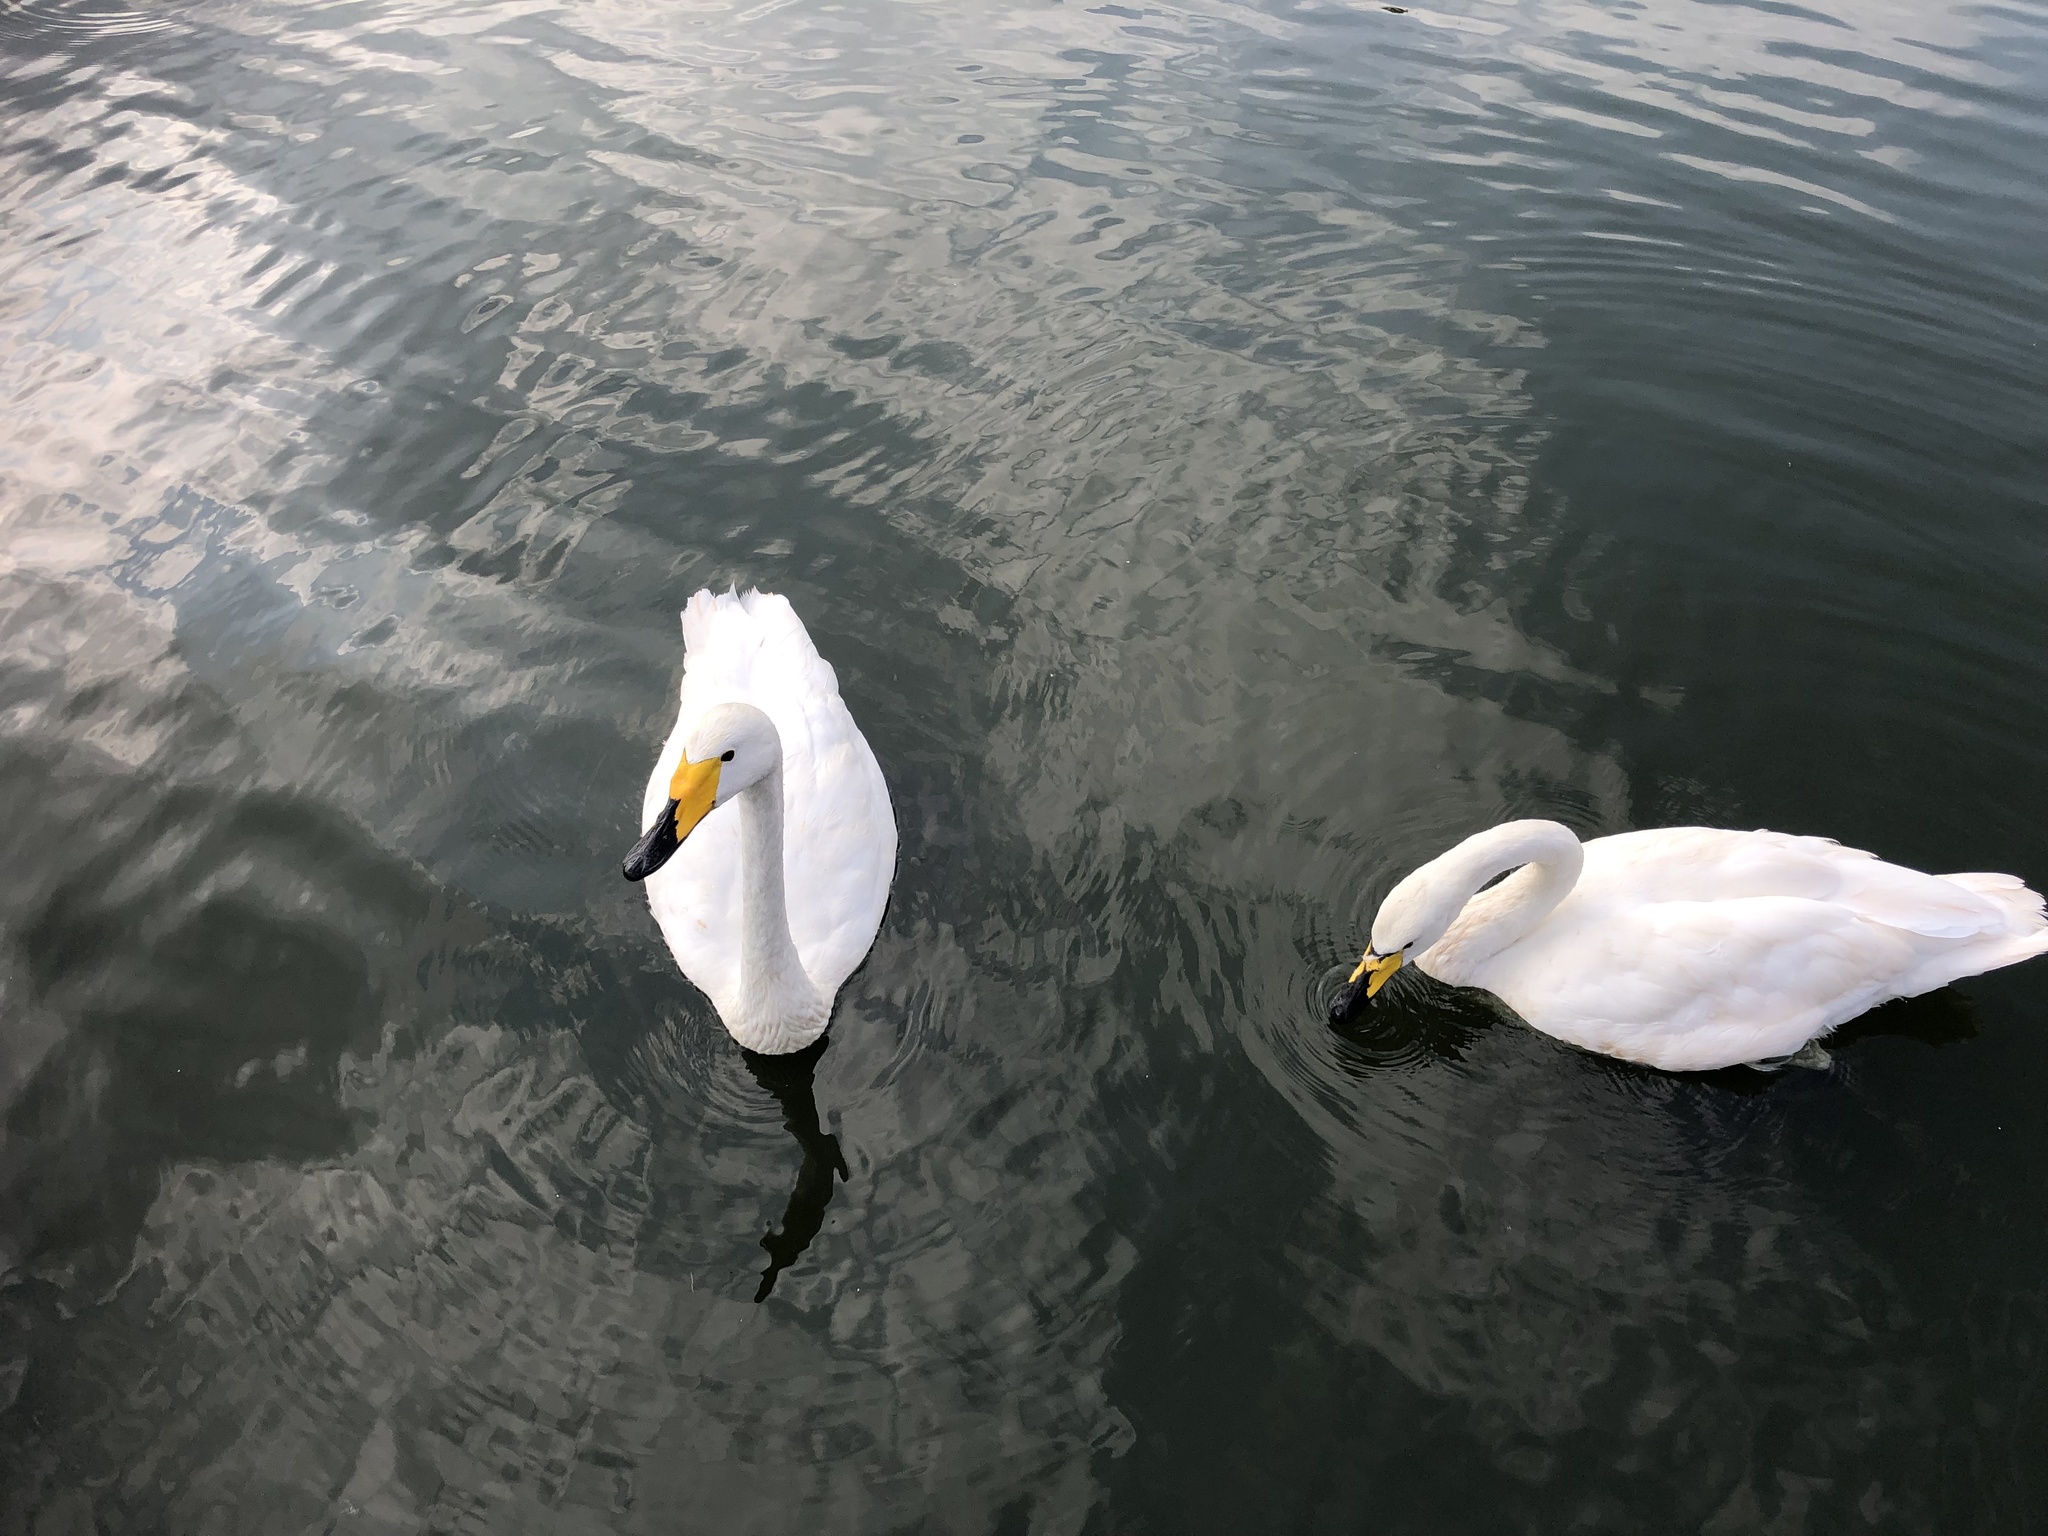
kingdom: Animalia
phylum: Chordata
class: Aves
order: Anseriformes
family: Anatidae
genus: Cygnus
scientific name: Cygnus cygnus
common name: Whooper swan
